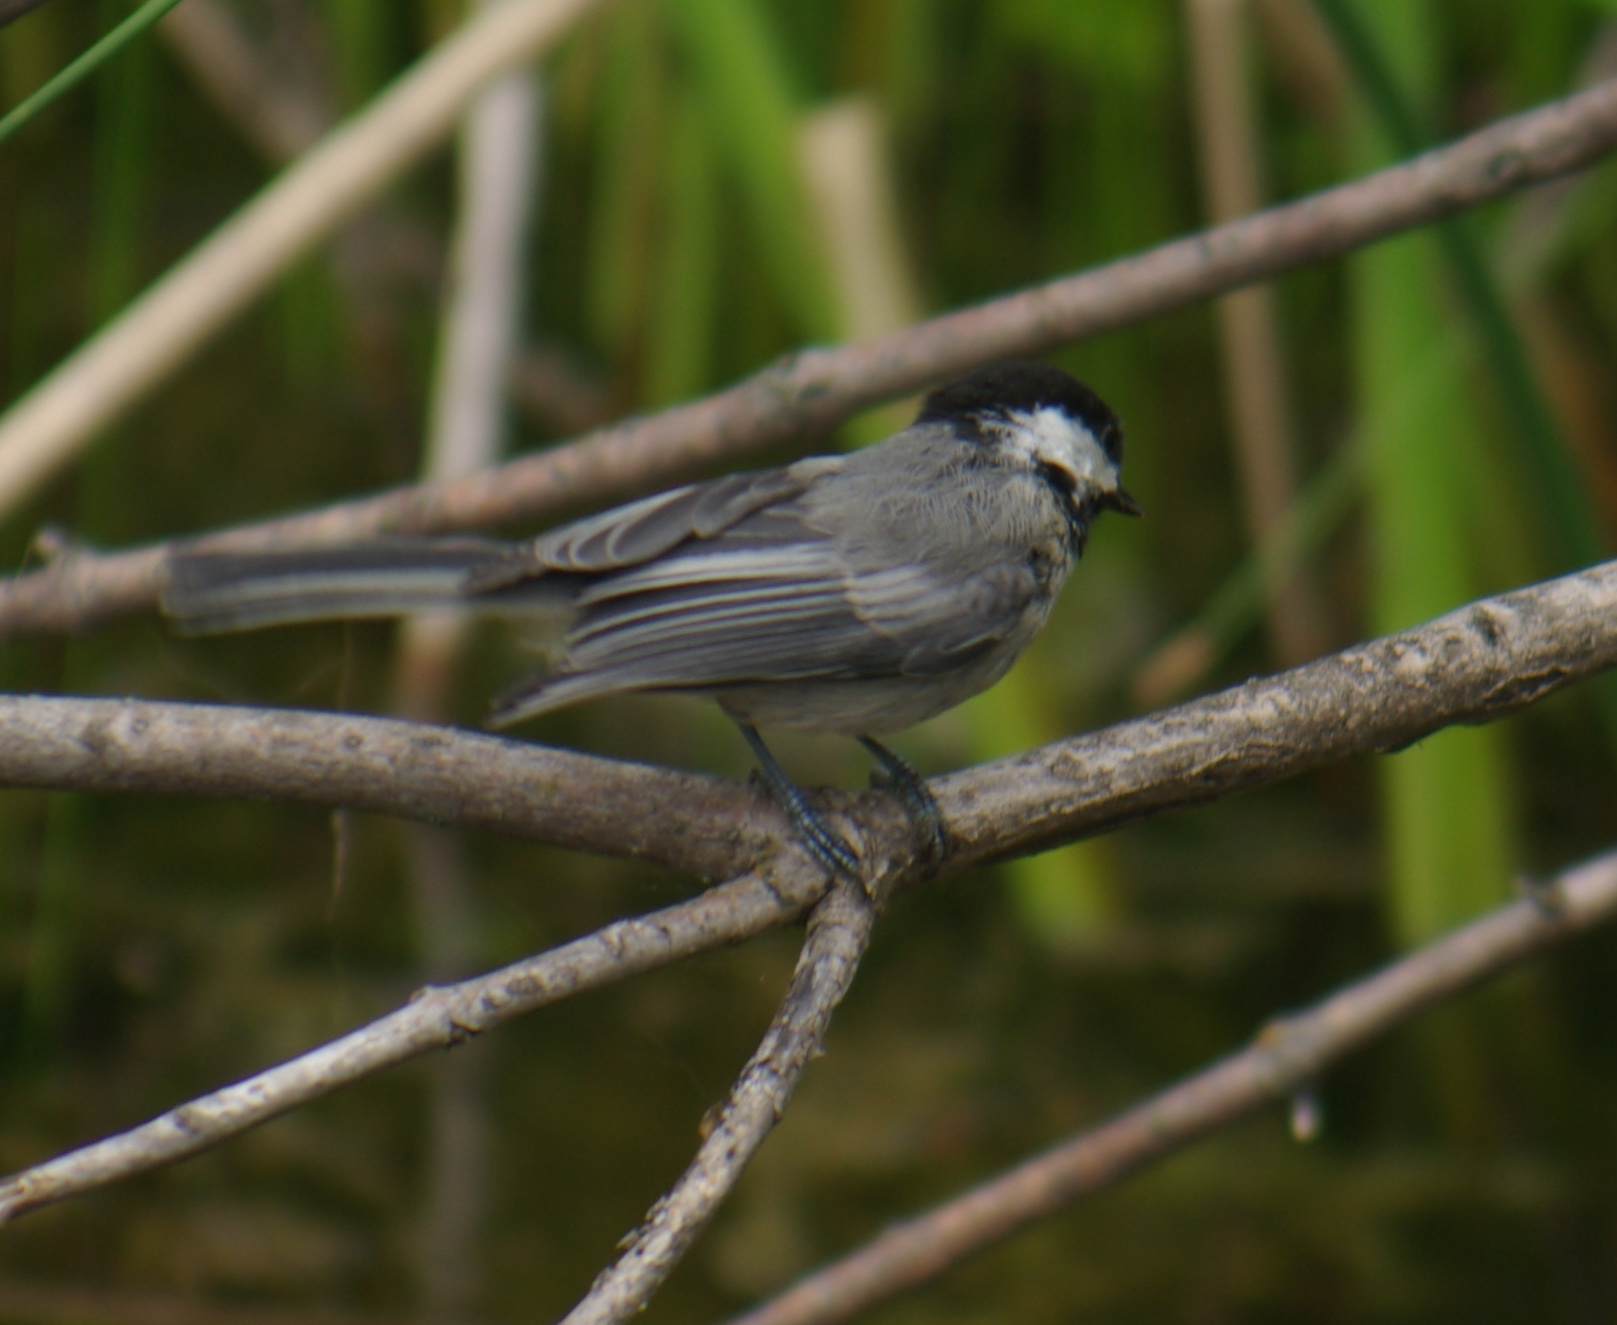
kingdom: Animalia
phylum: Chordata
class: Aves
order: Passeriformes
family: Paridae
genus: Poecile
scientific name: Poecile atricapillus
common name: Black-capped chickadee
